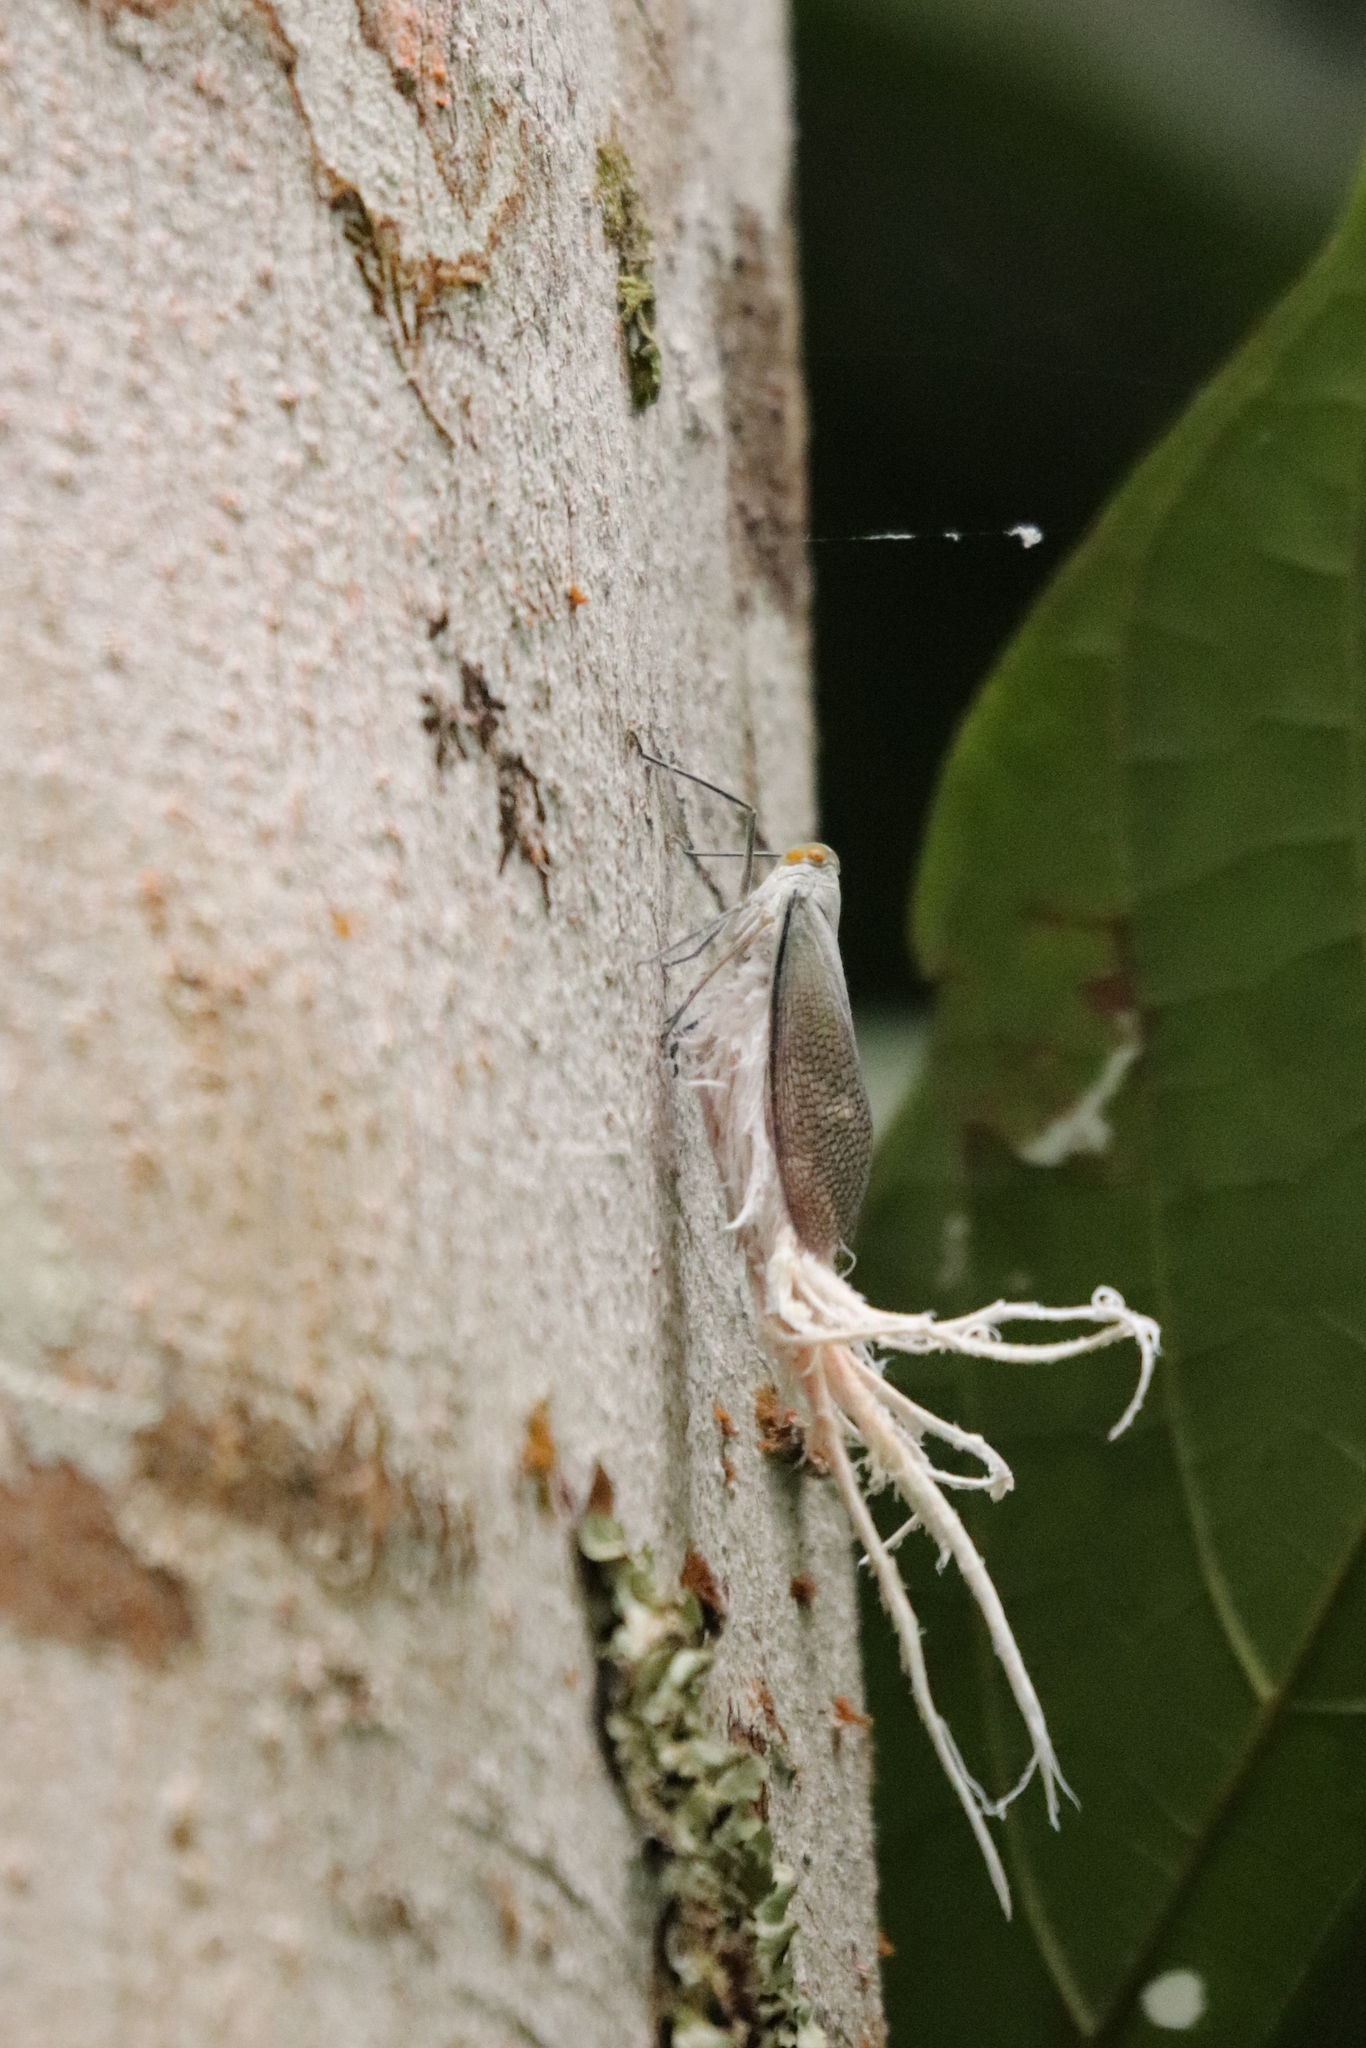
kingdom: Animalia
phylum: Arthropoda
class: Insecta
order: Hemiptera
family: Fulgoridae
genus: Pterodictya
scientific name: Pterodictya reticularis
